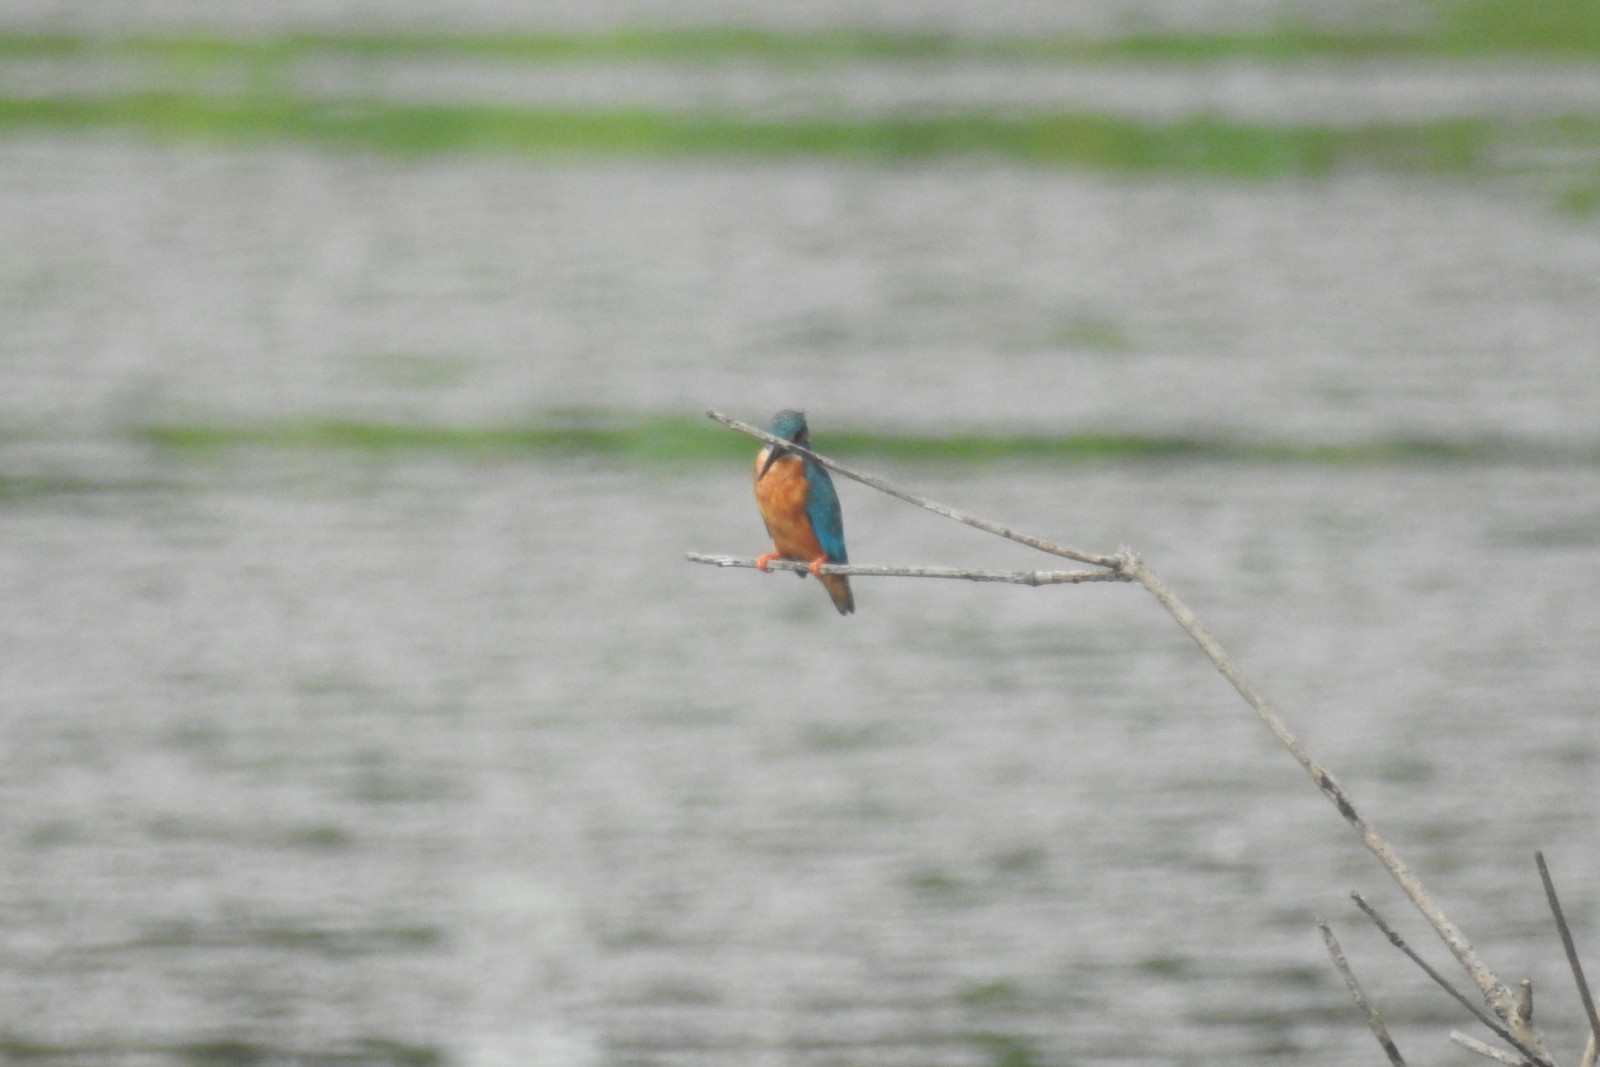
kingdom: Animalia
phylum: Chordata
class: Aves
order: Coraciiformes
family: Alcedinidae
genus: Alcedo
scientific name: Alcedo atthis
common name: Common kingfisher
